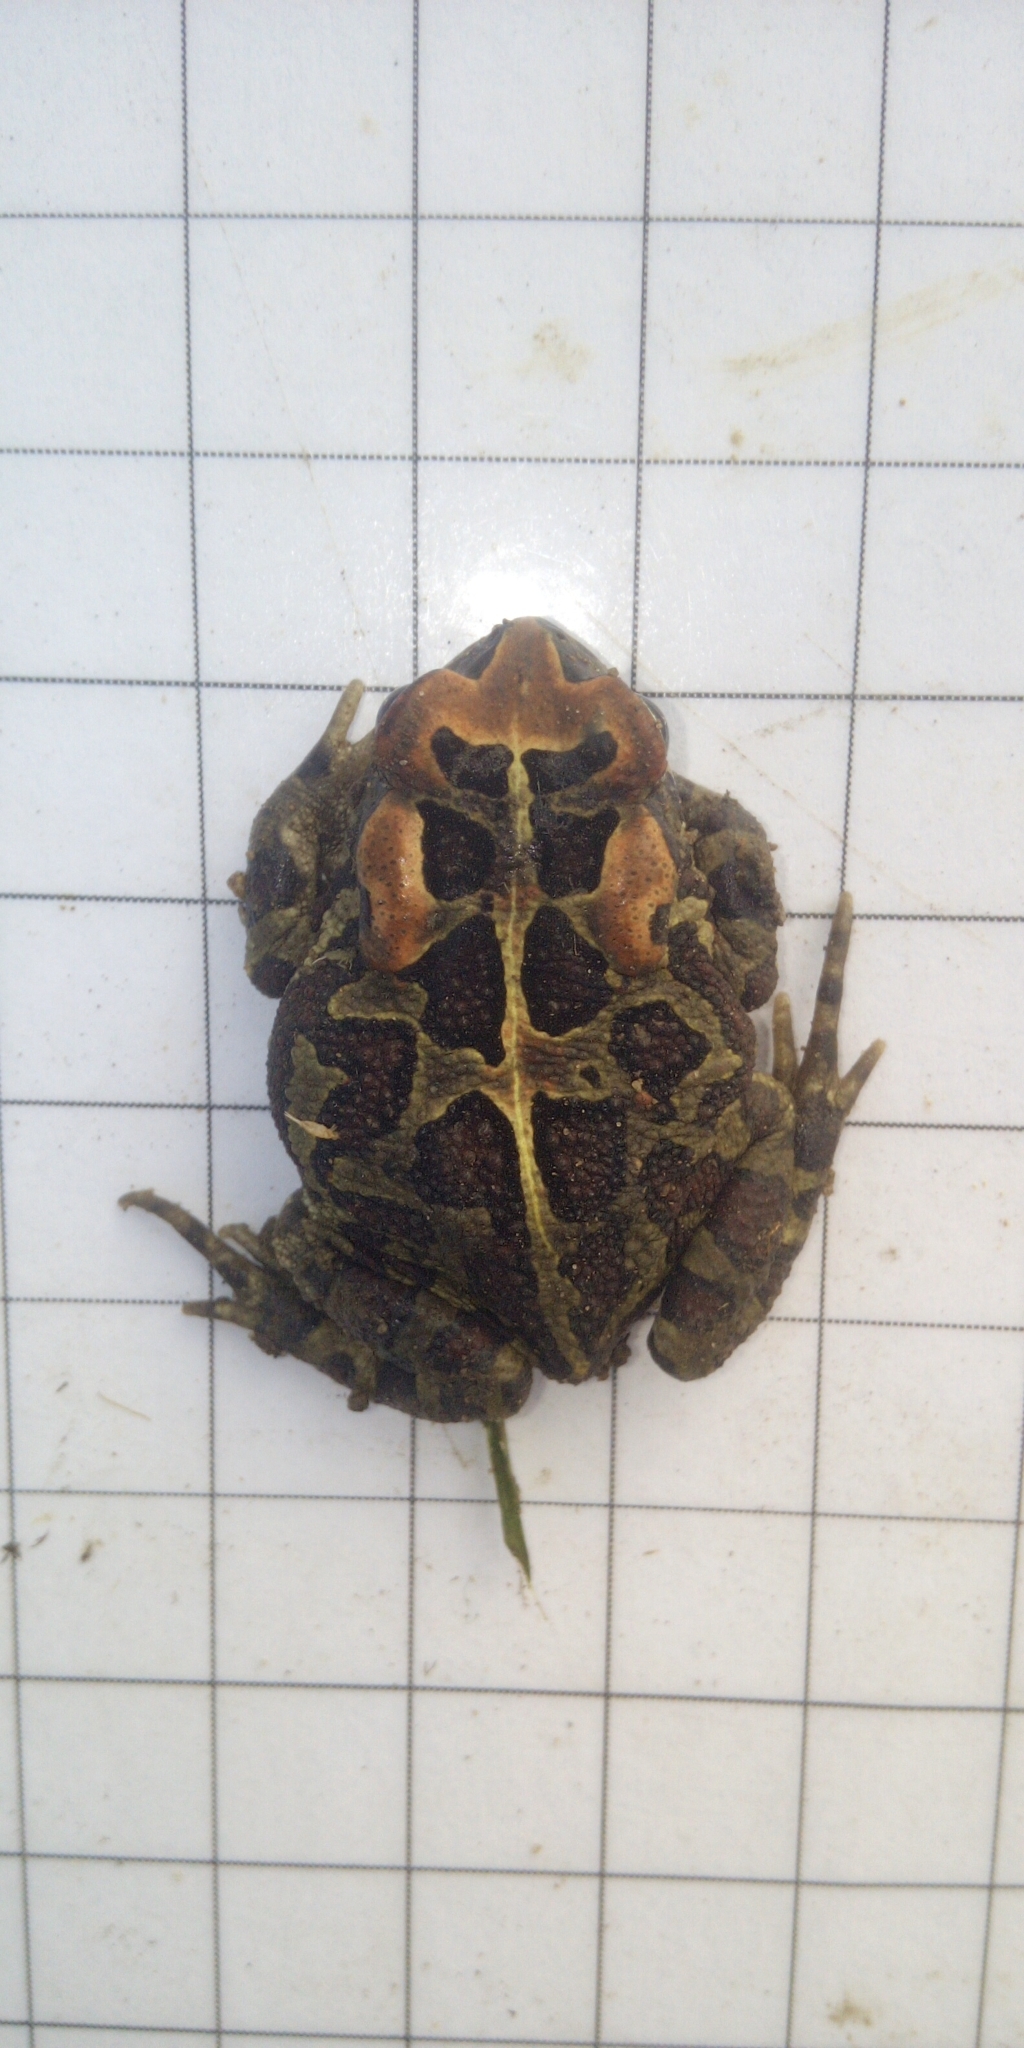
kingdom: Animalia
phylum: Chordata
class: Amphibia
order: Anura
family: Bufonidae
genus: Sclerophrys
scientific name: Sclerophrys pantherina
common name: Panther toad
